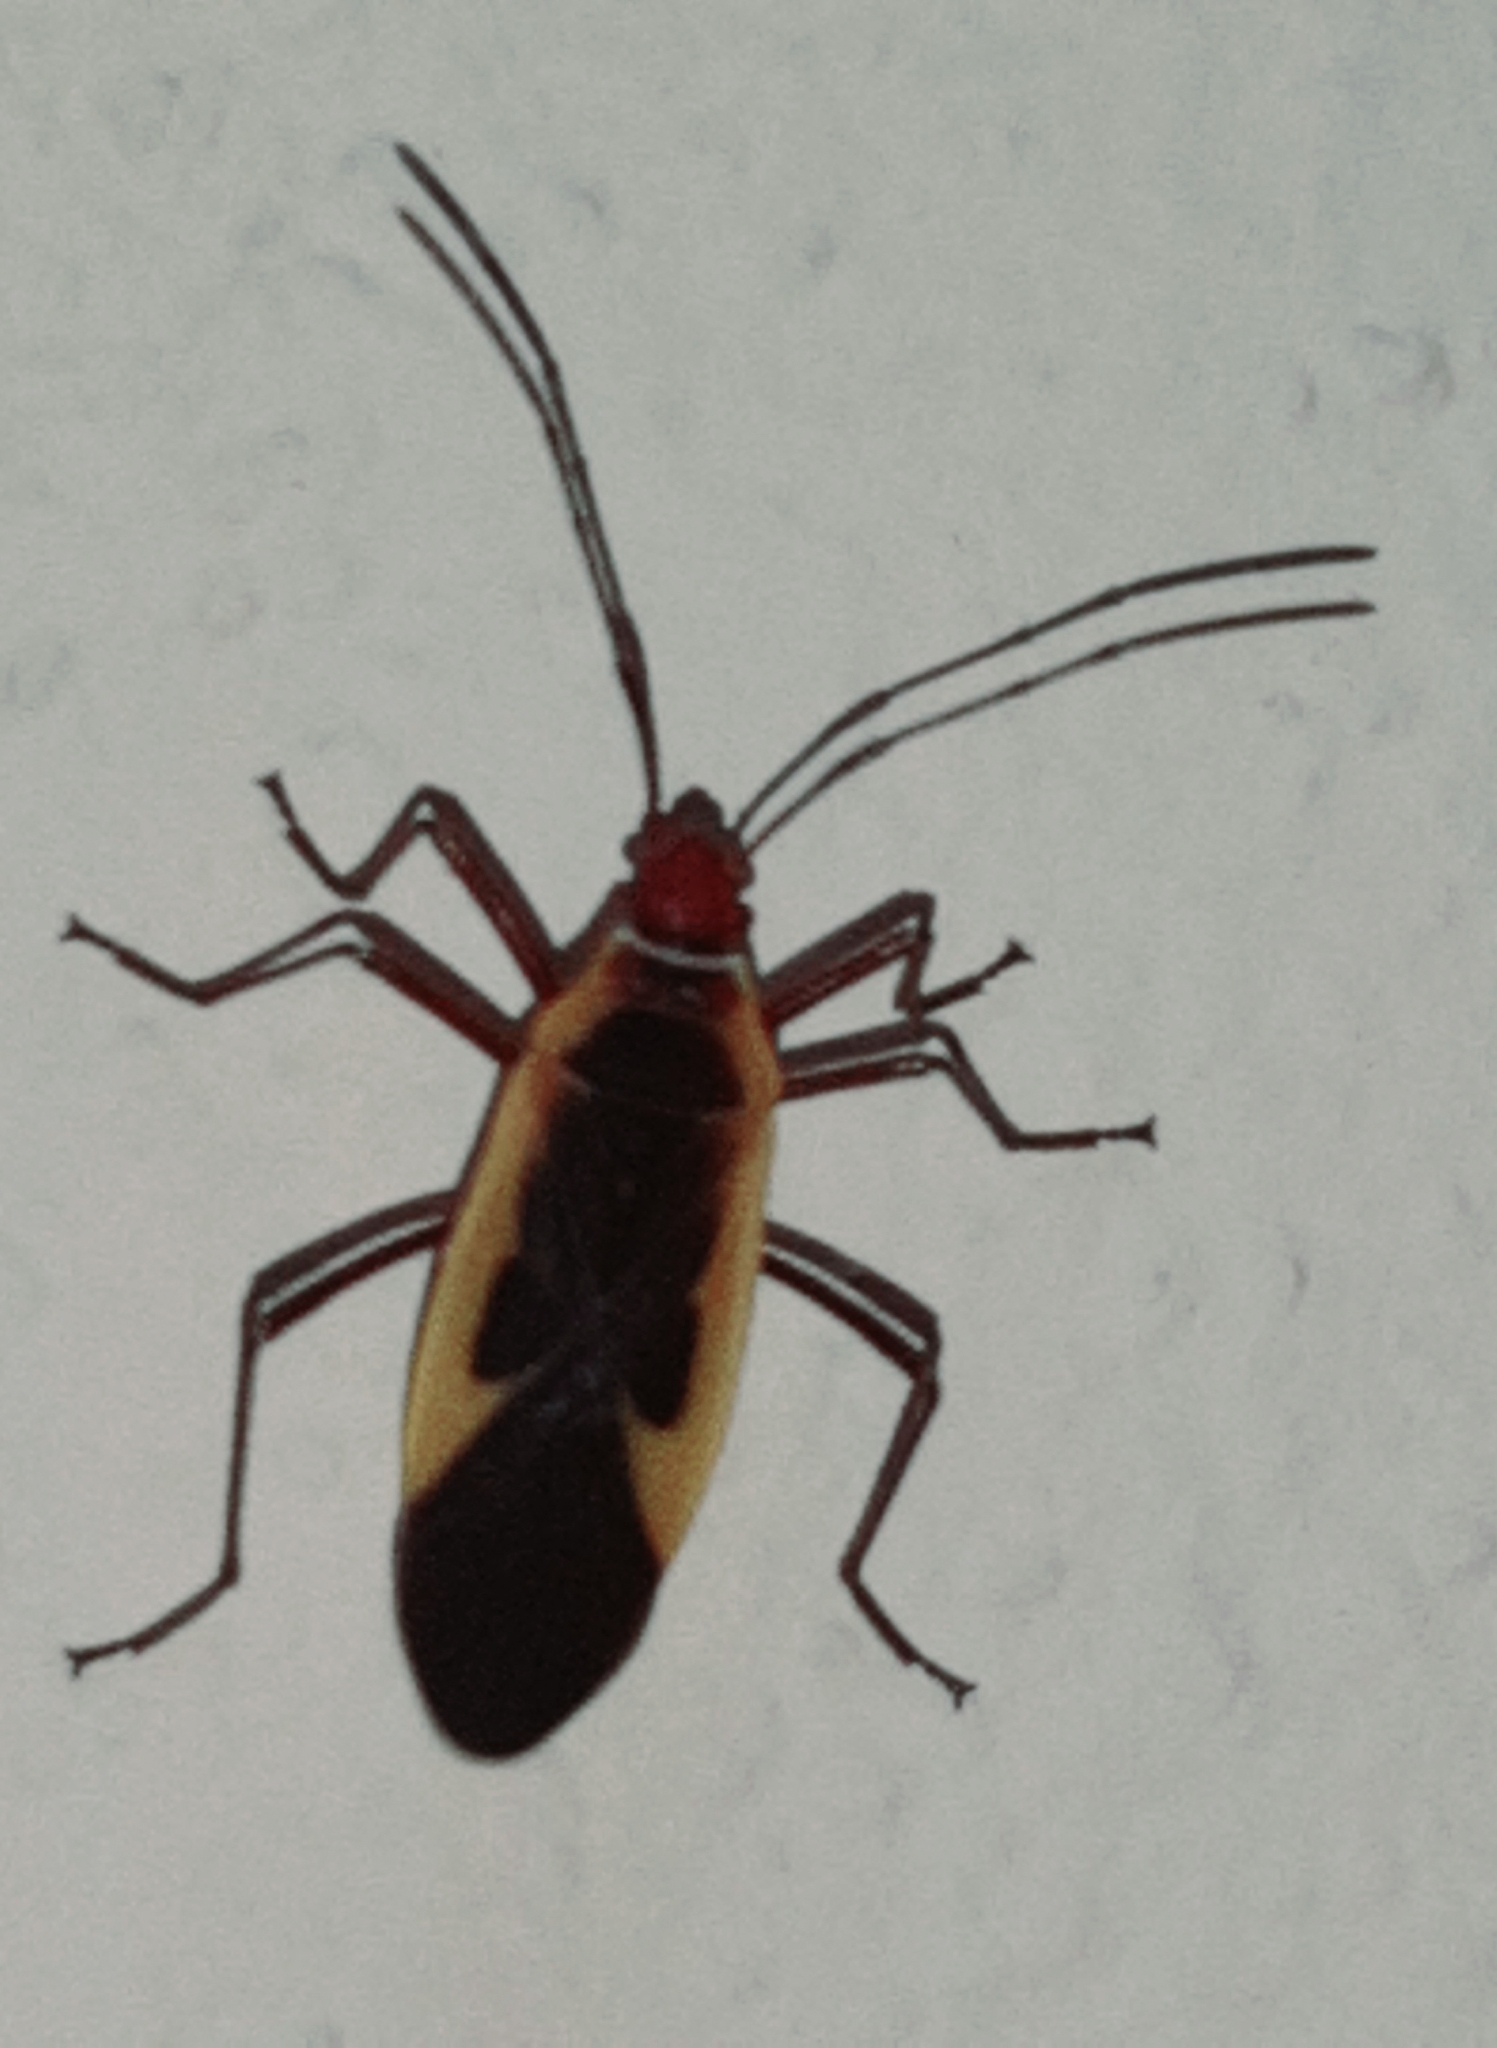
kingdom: Animalia
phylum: Arthropoda
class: Insecta
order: Hemiptera
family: Pyrrhocoridae
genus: Dysdercus
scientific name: Dysdercus mimulus
